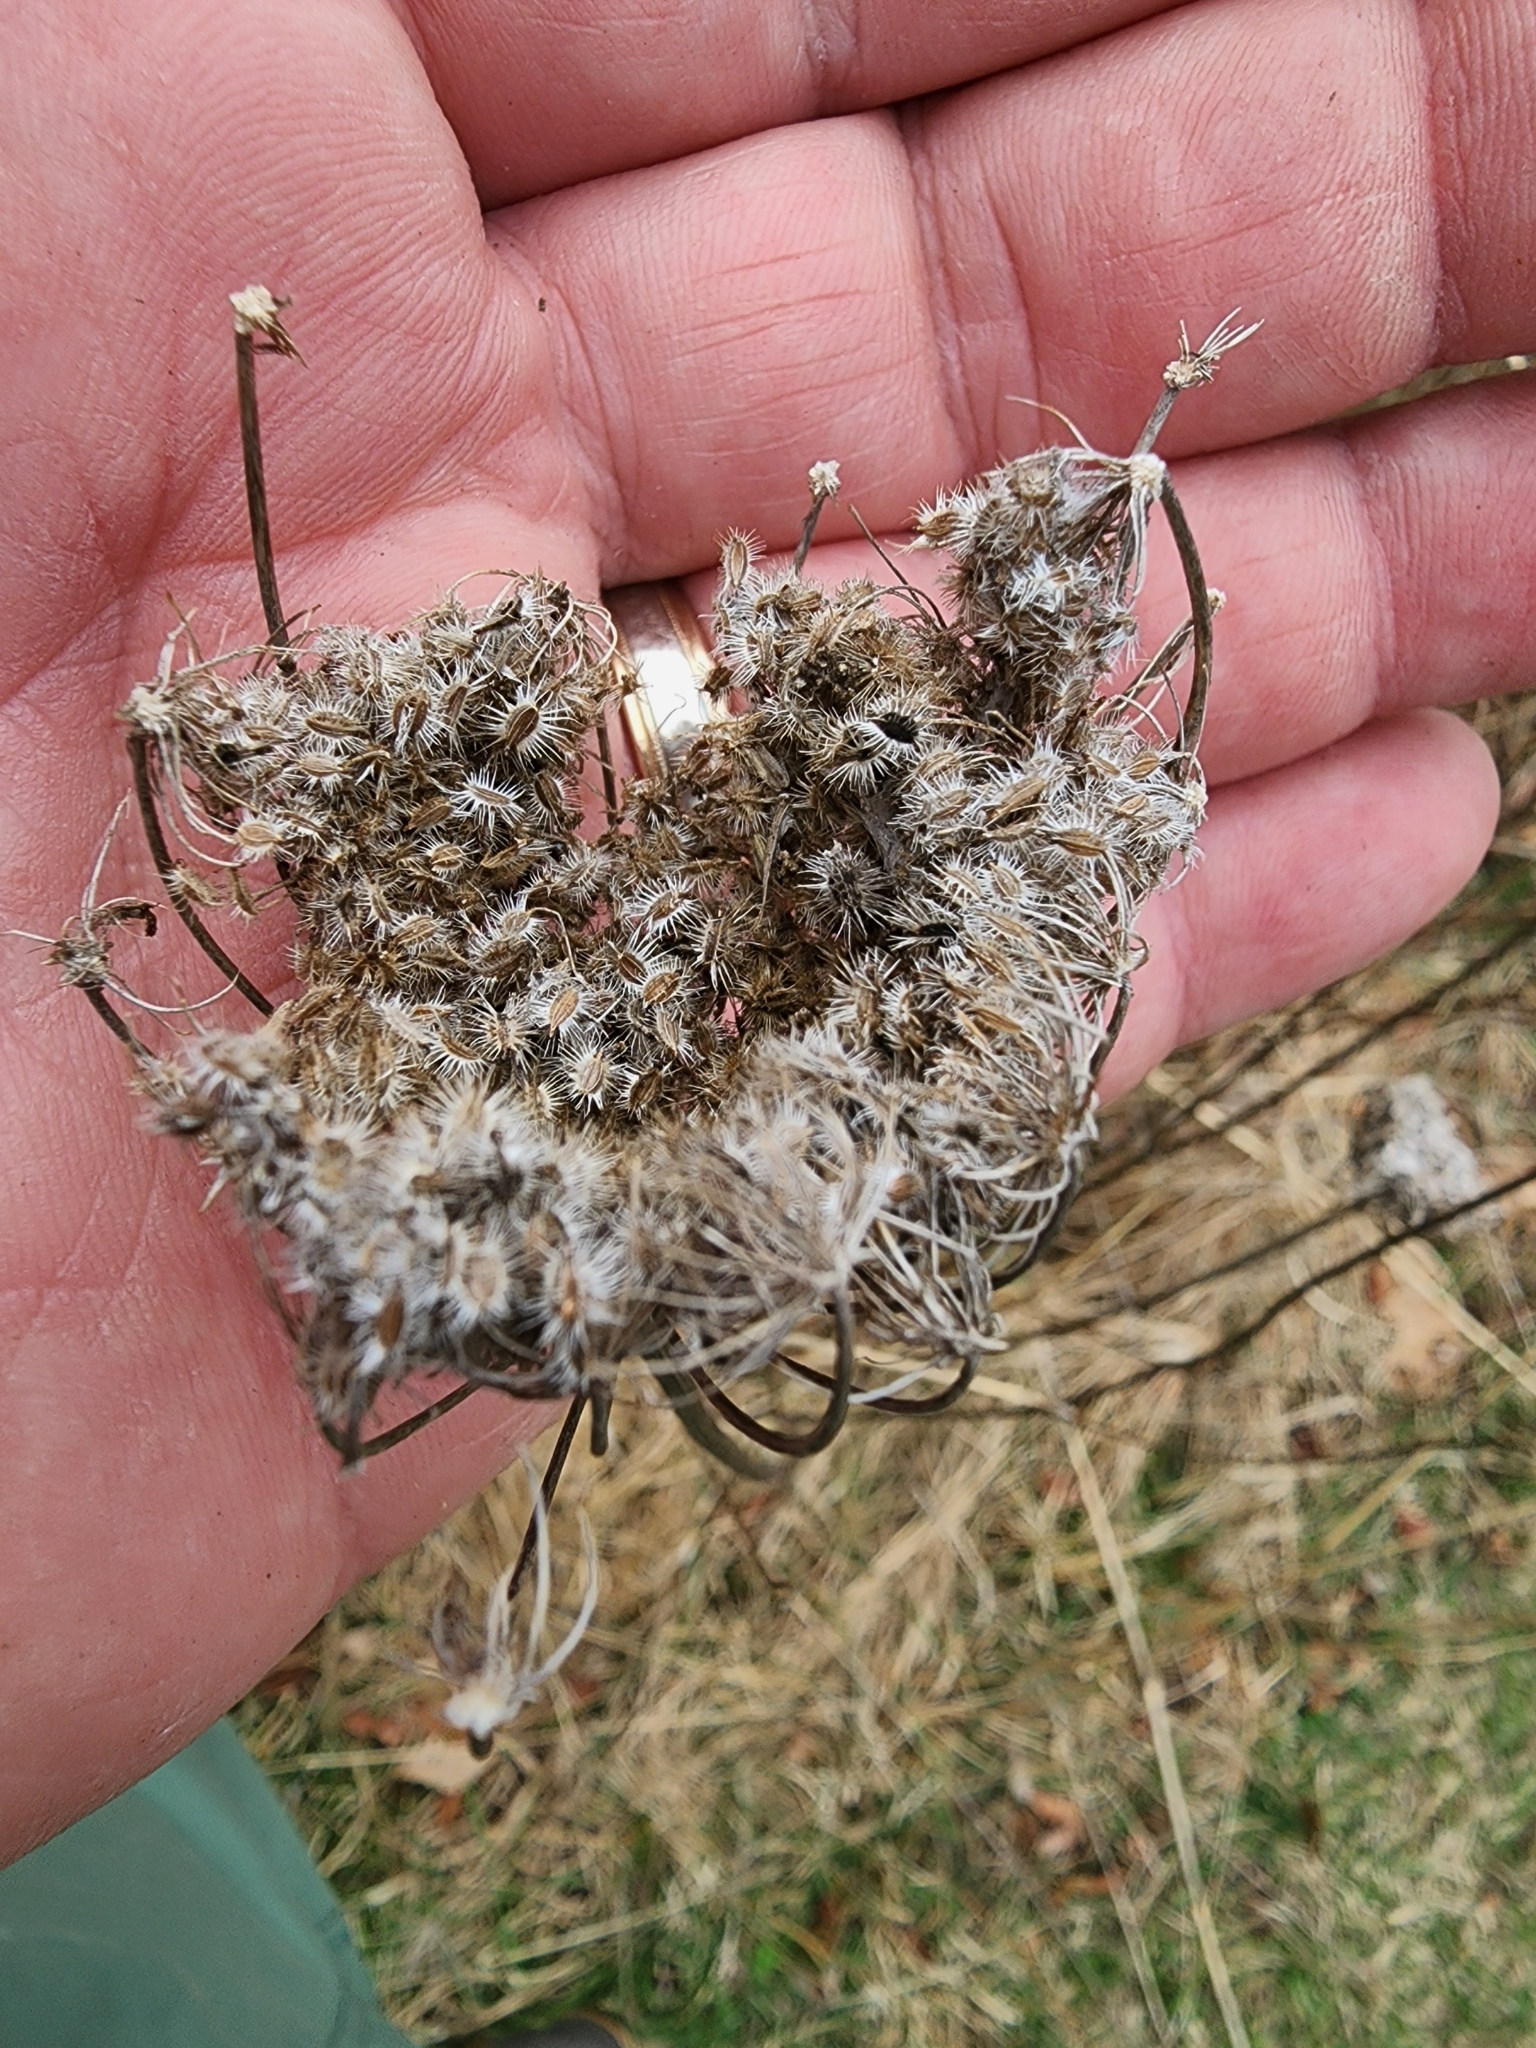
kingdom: Plantae
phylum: Tracheophyta
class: Magnoliopsida
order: Apiales
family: Apiaceae
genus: Daucus
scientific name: Daucus carota
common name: Wild carrot
